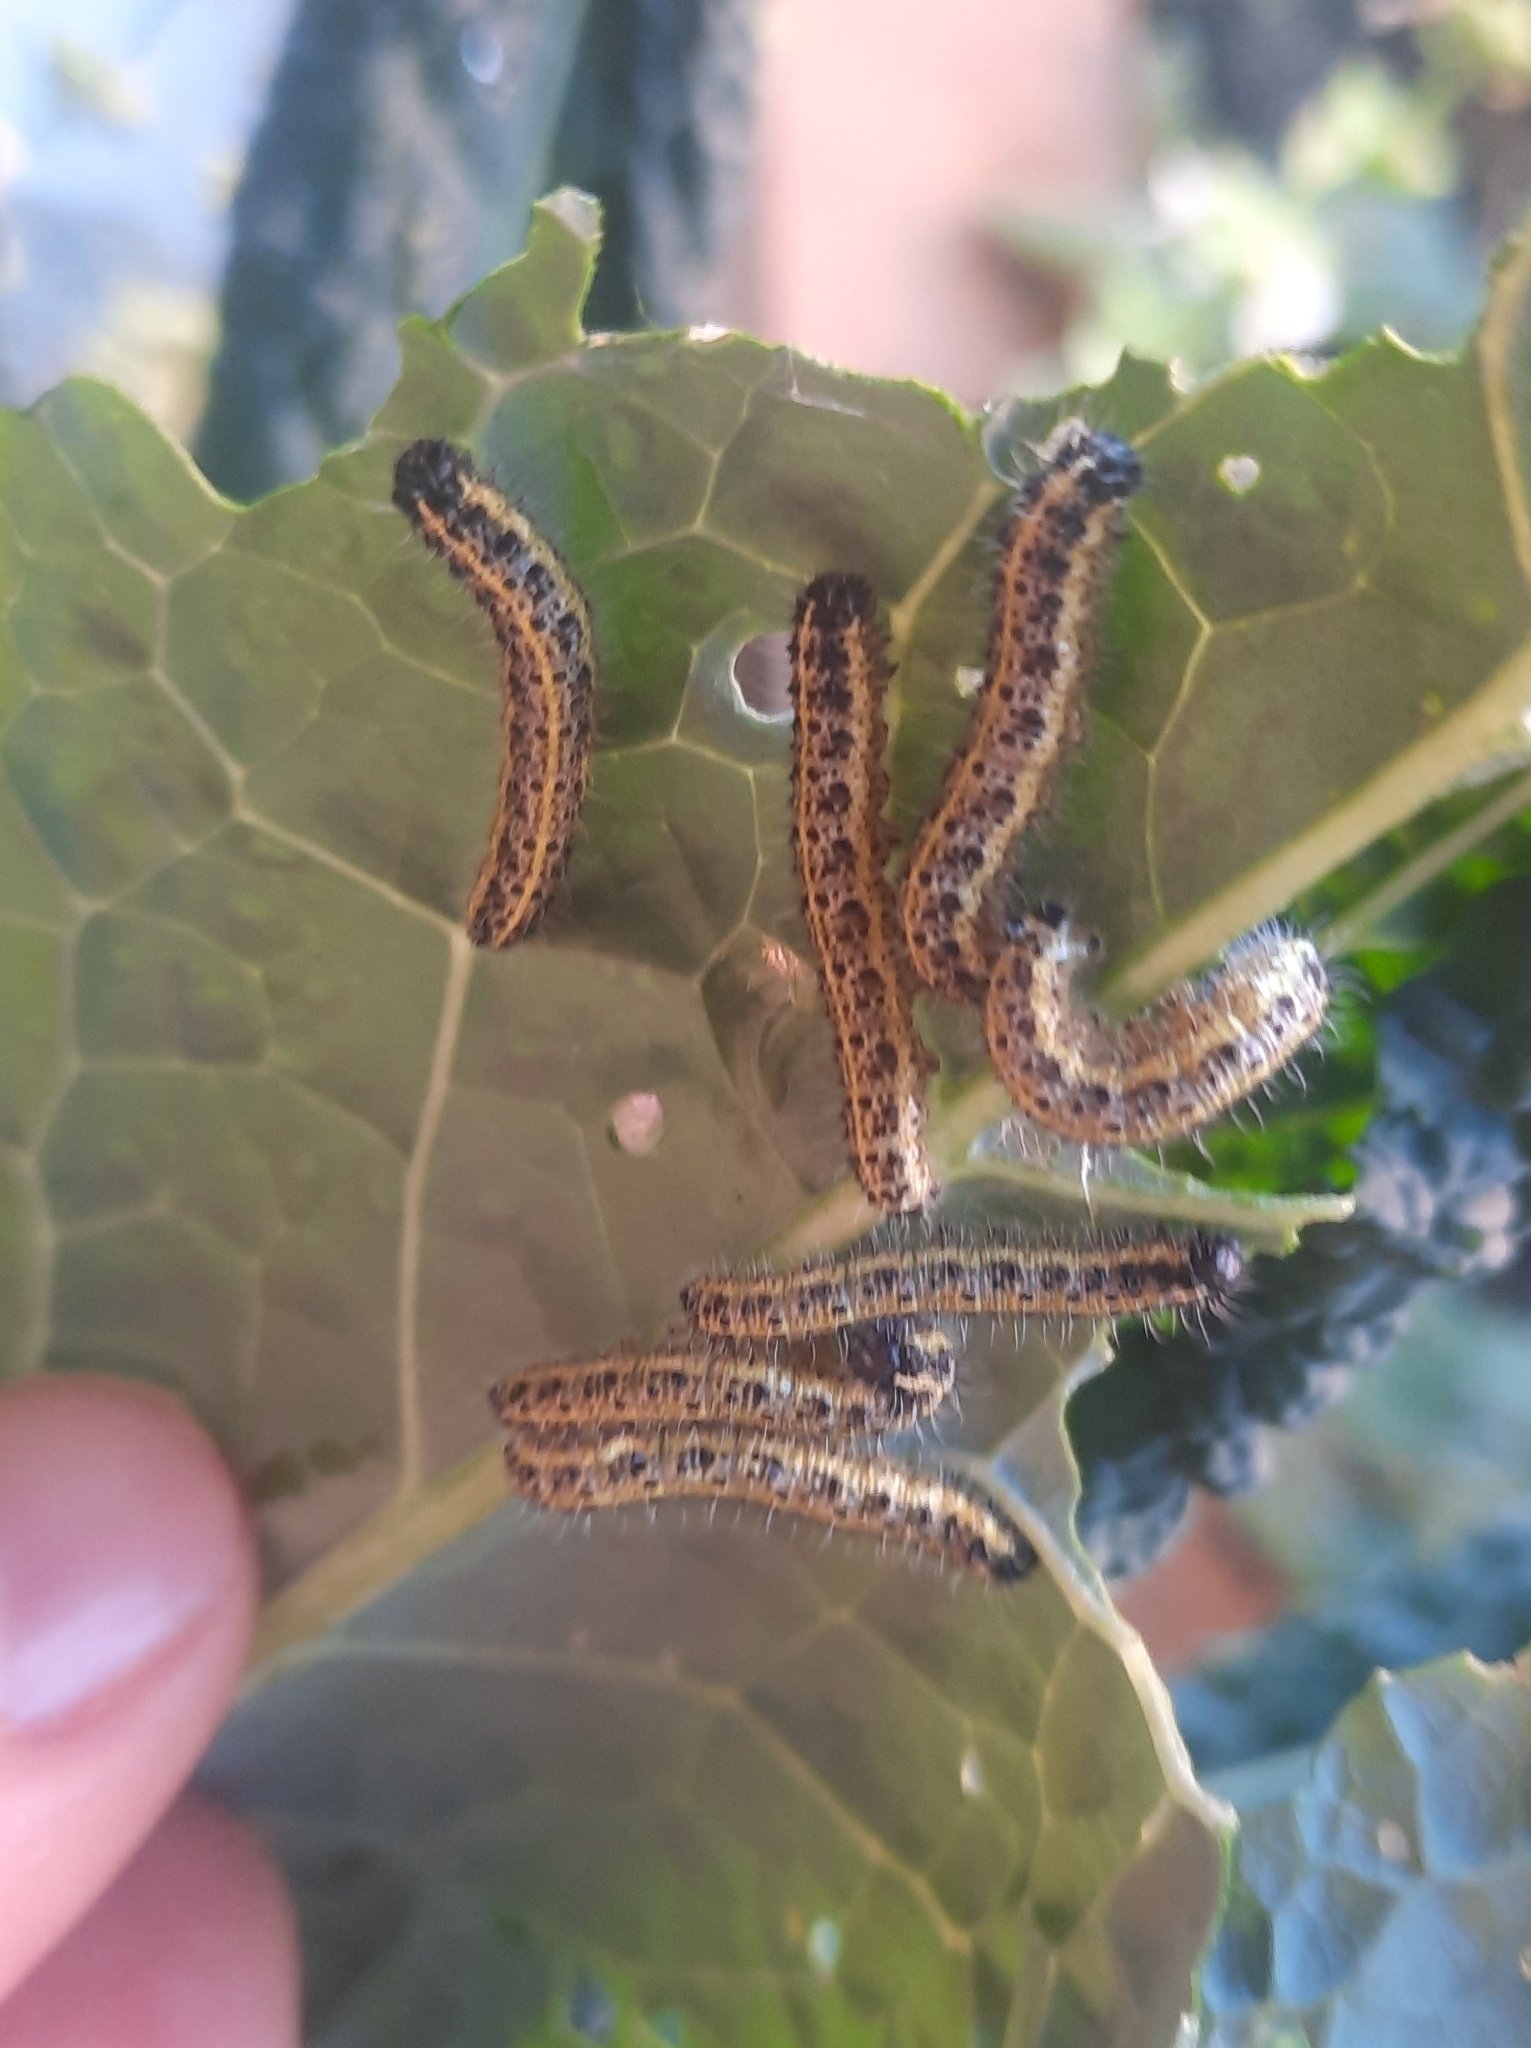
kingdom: Animalia
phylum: Arthropoda
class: Insecta
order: Lepidoptera
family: Pieridae
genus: Pieris
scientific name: Pieris brassicae
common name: Large white
